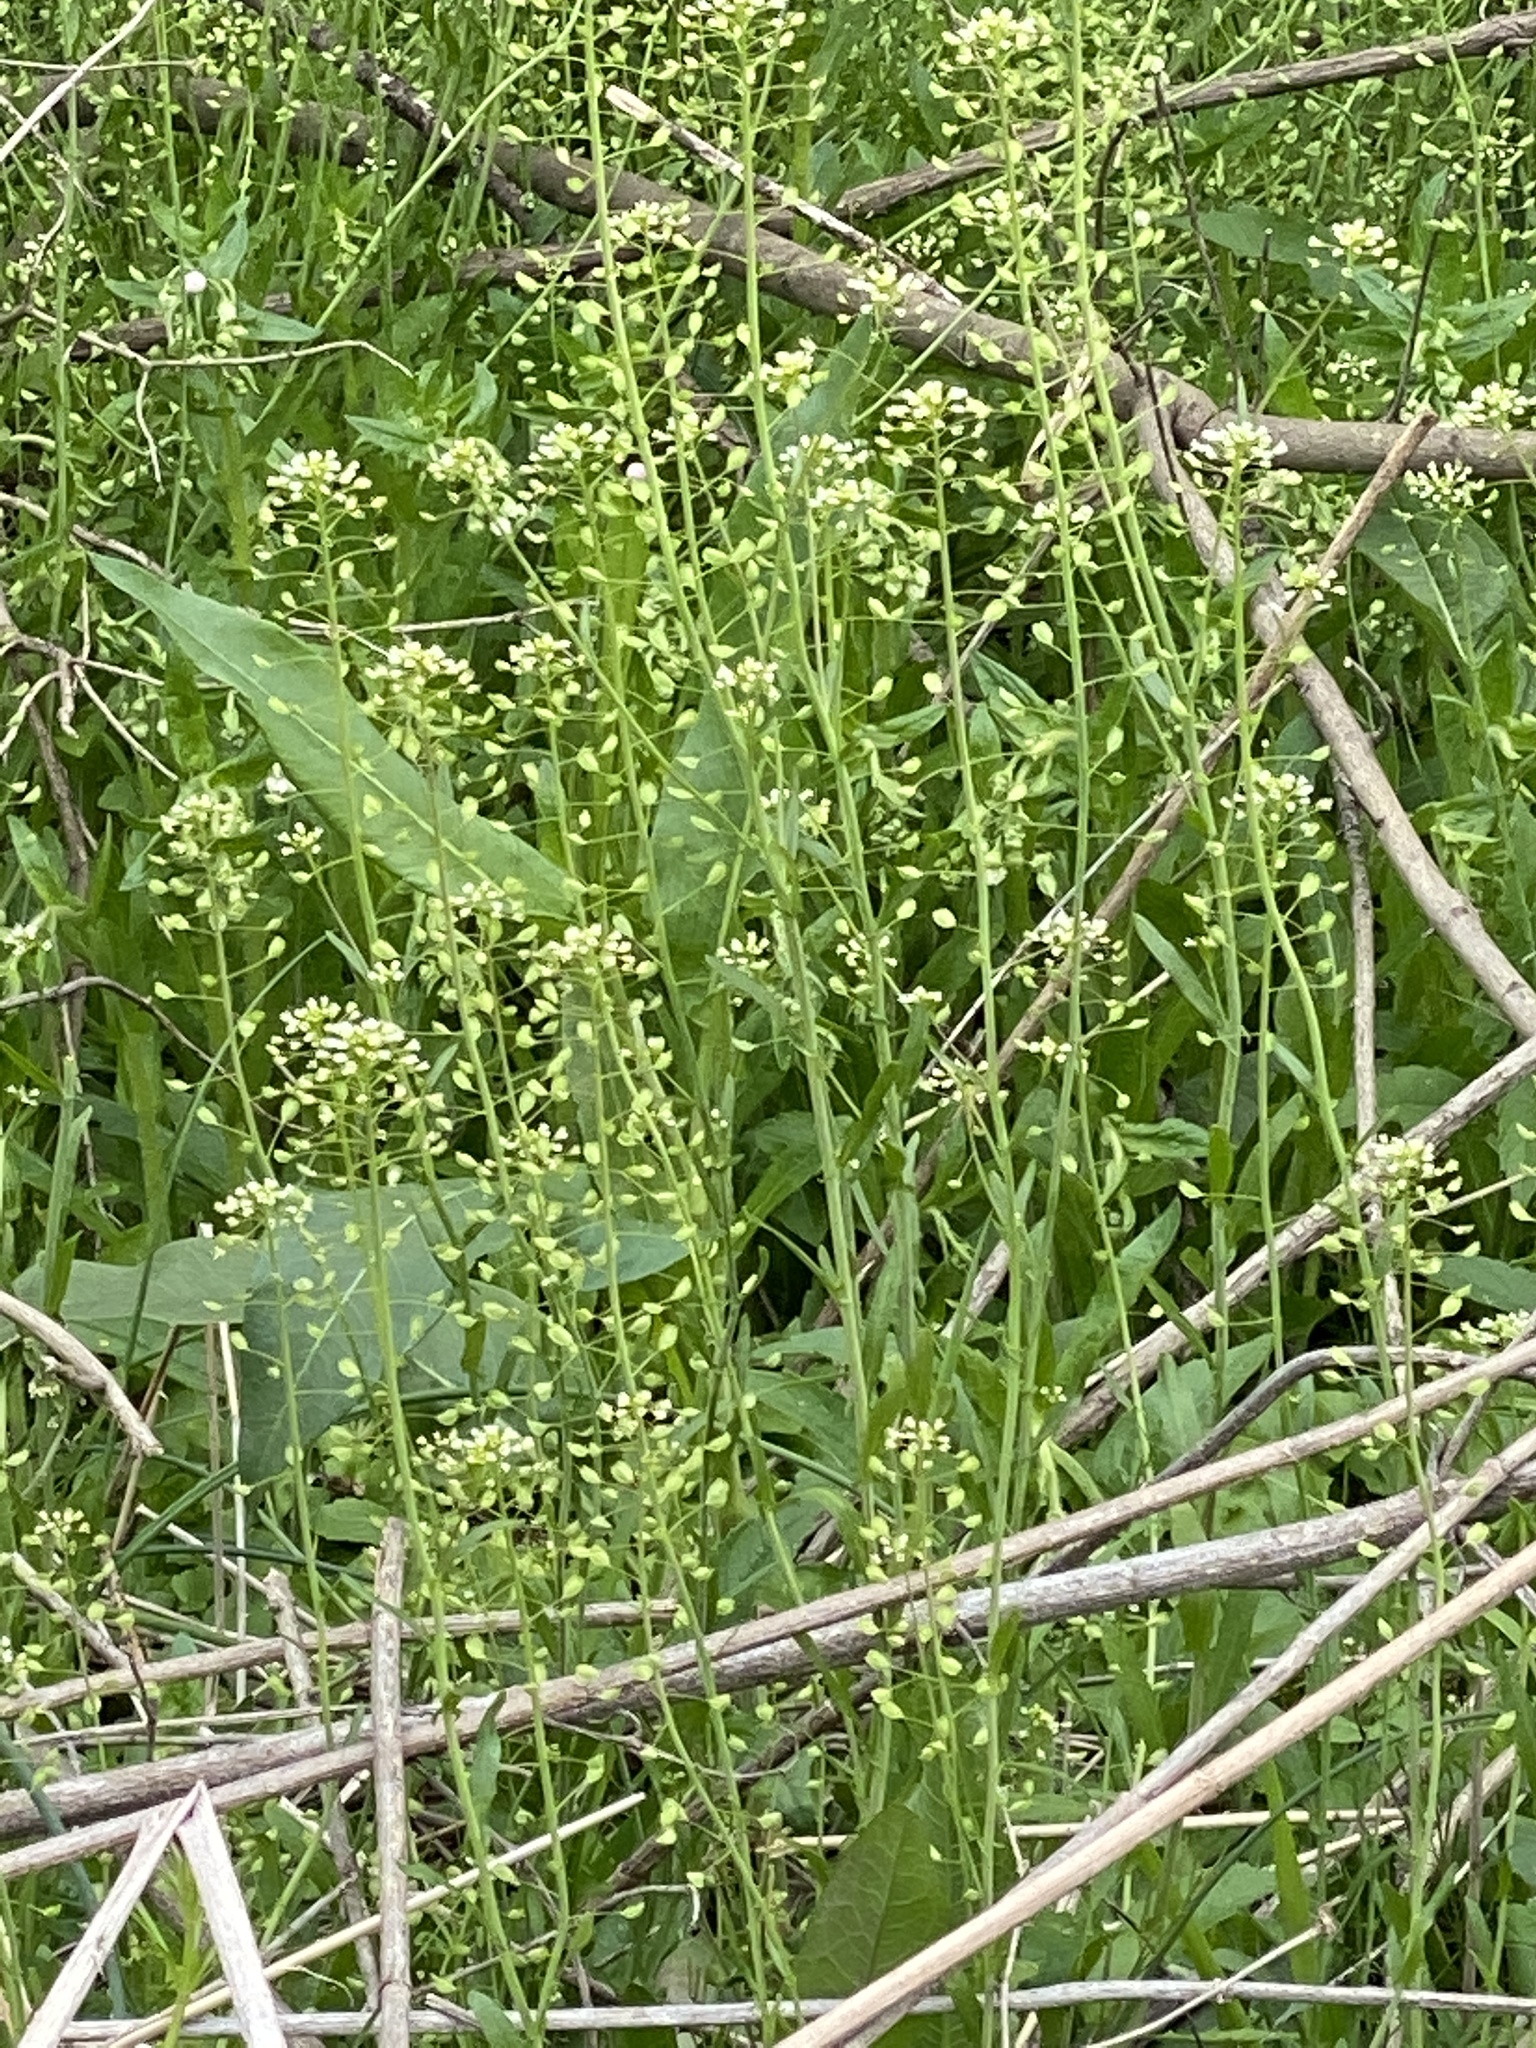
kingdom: Plantae
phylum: Tracheophyta
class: Magnoliopsida
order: Brassicales
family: Brassicaceae
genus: Mummenhoffia
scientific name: Mummenhoffia alliacea
